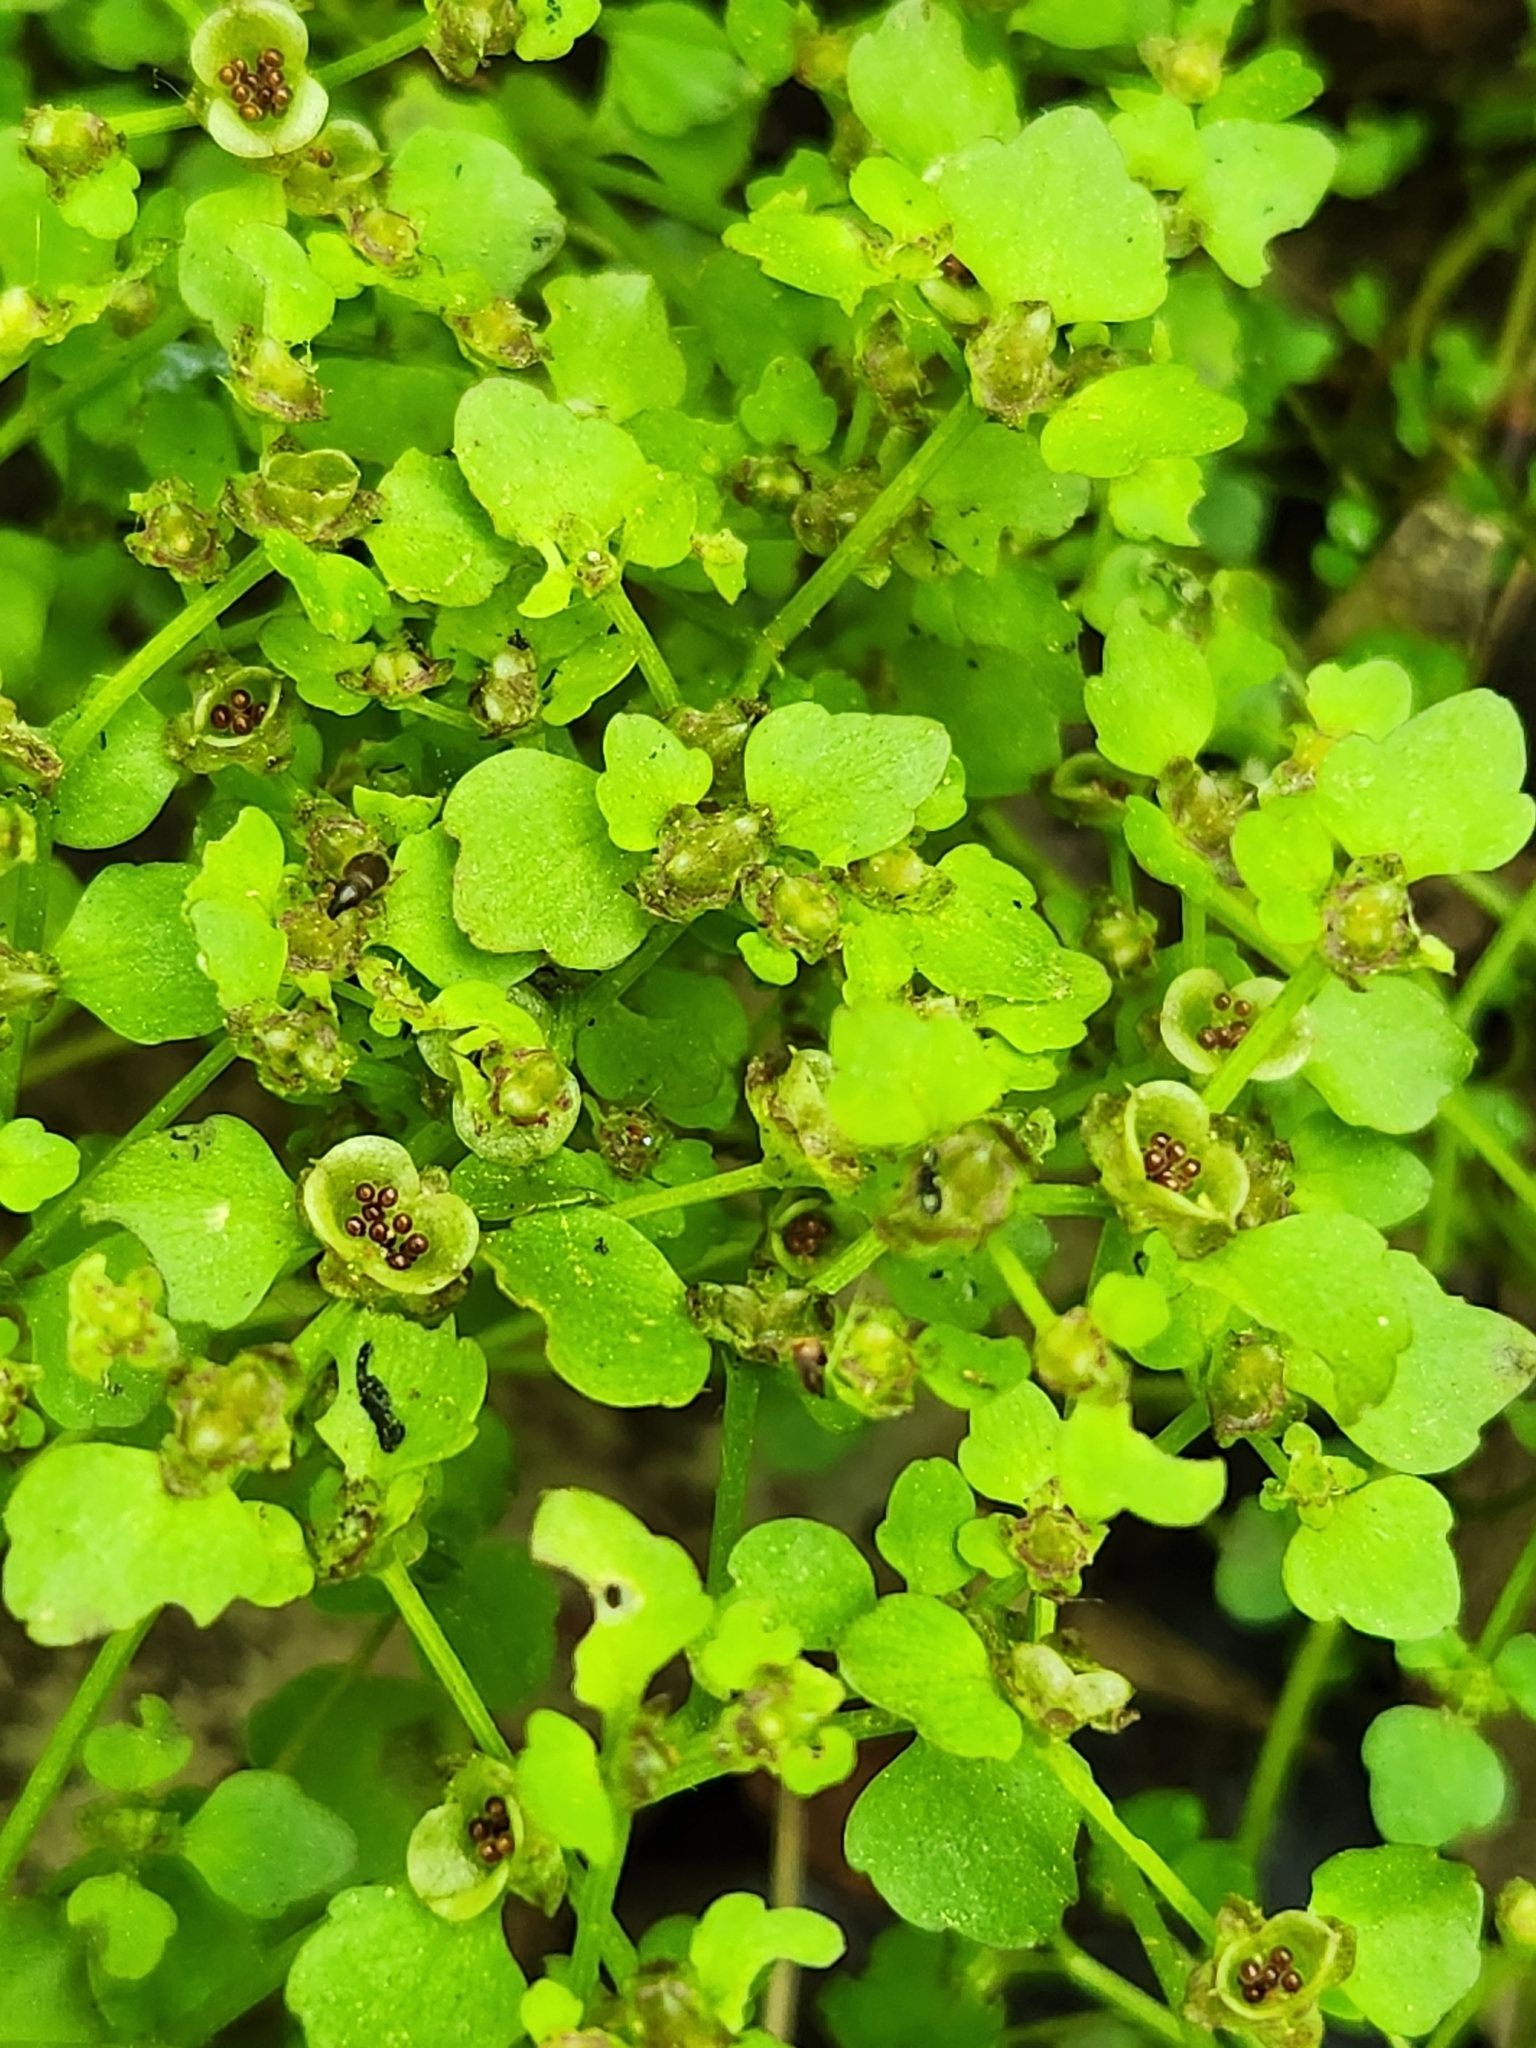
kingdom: Plantae
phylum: Tracheophyta
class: Magnoliopsida
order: Saxifragales
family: Saxifragaceae
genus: Chrysosplenium
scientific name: Chrysosplenium americanum
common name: American golden-saxifrage
